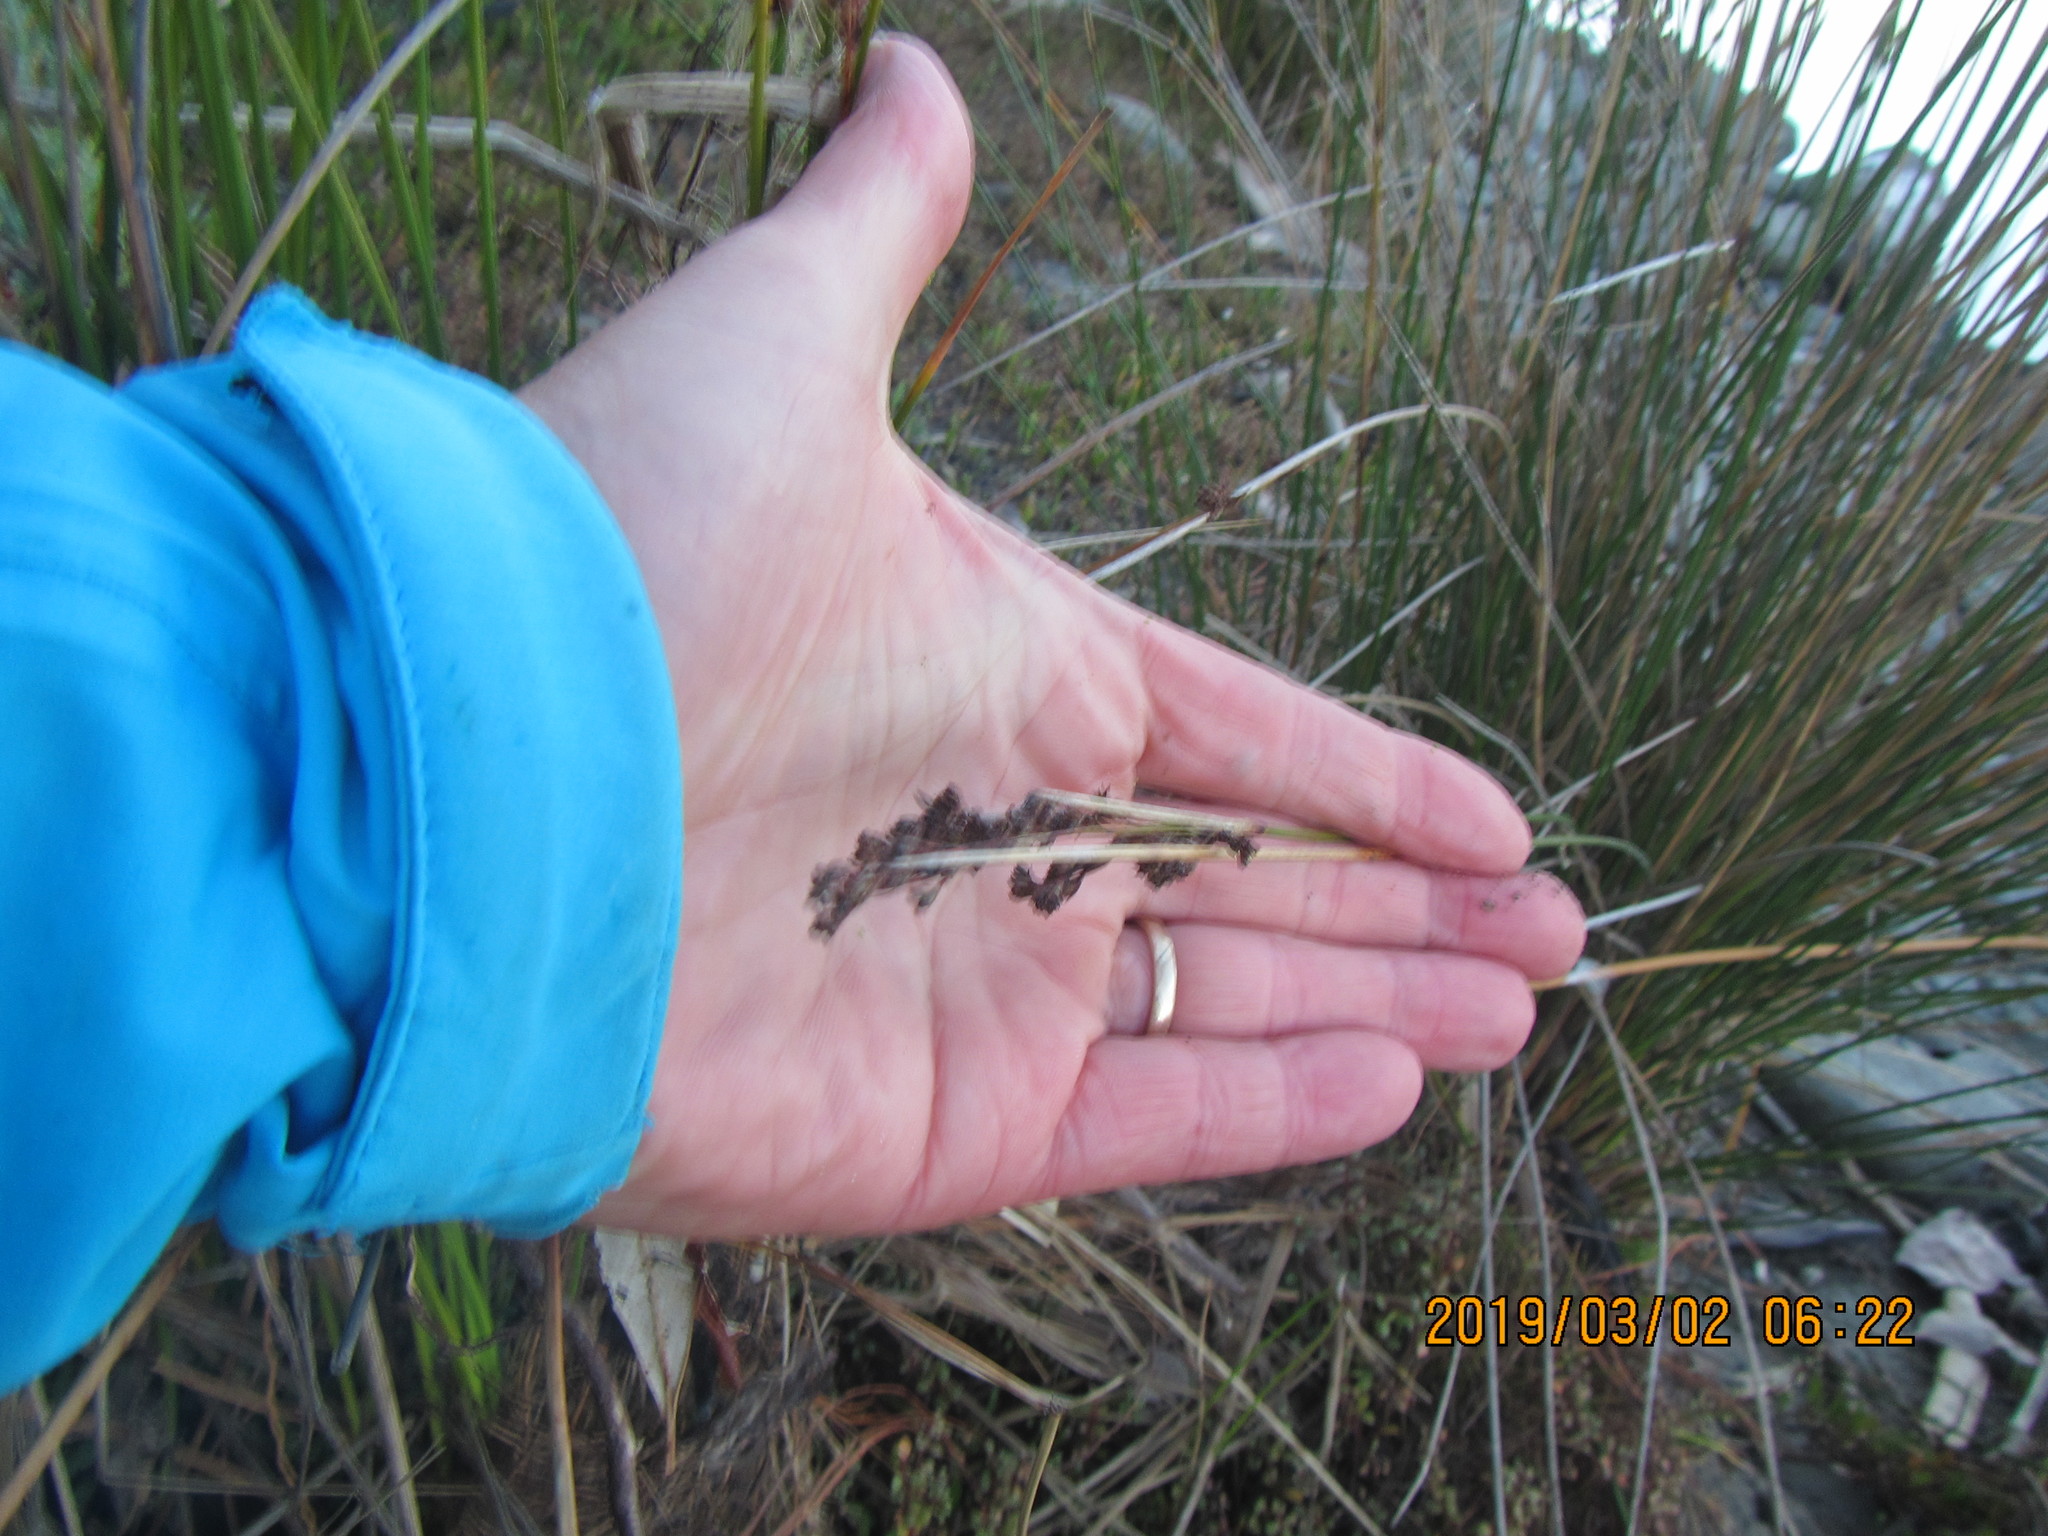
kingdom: Plantae
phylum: Tracheophyta
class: Liliopsida
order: Poales
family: Juncaceae
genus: Juncus
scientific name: Juncus kraussii
